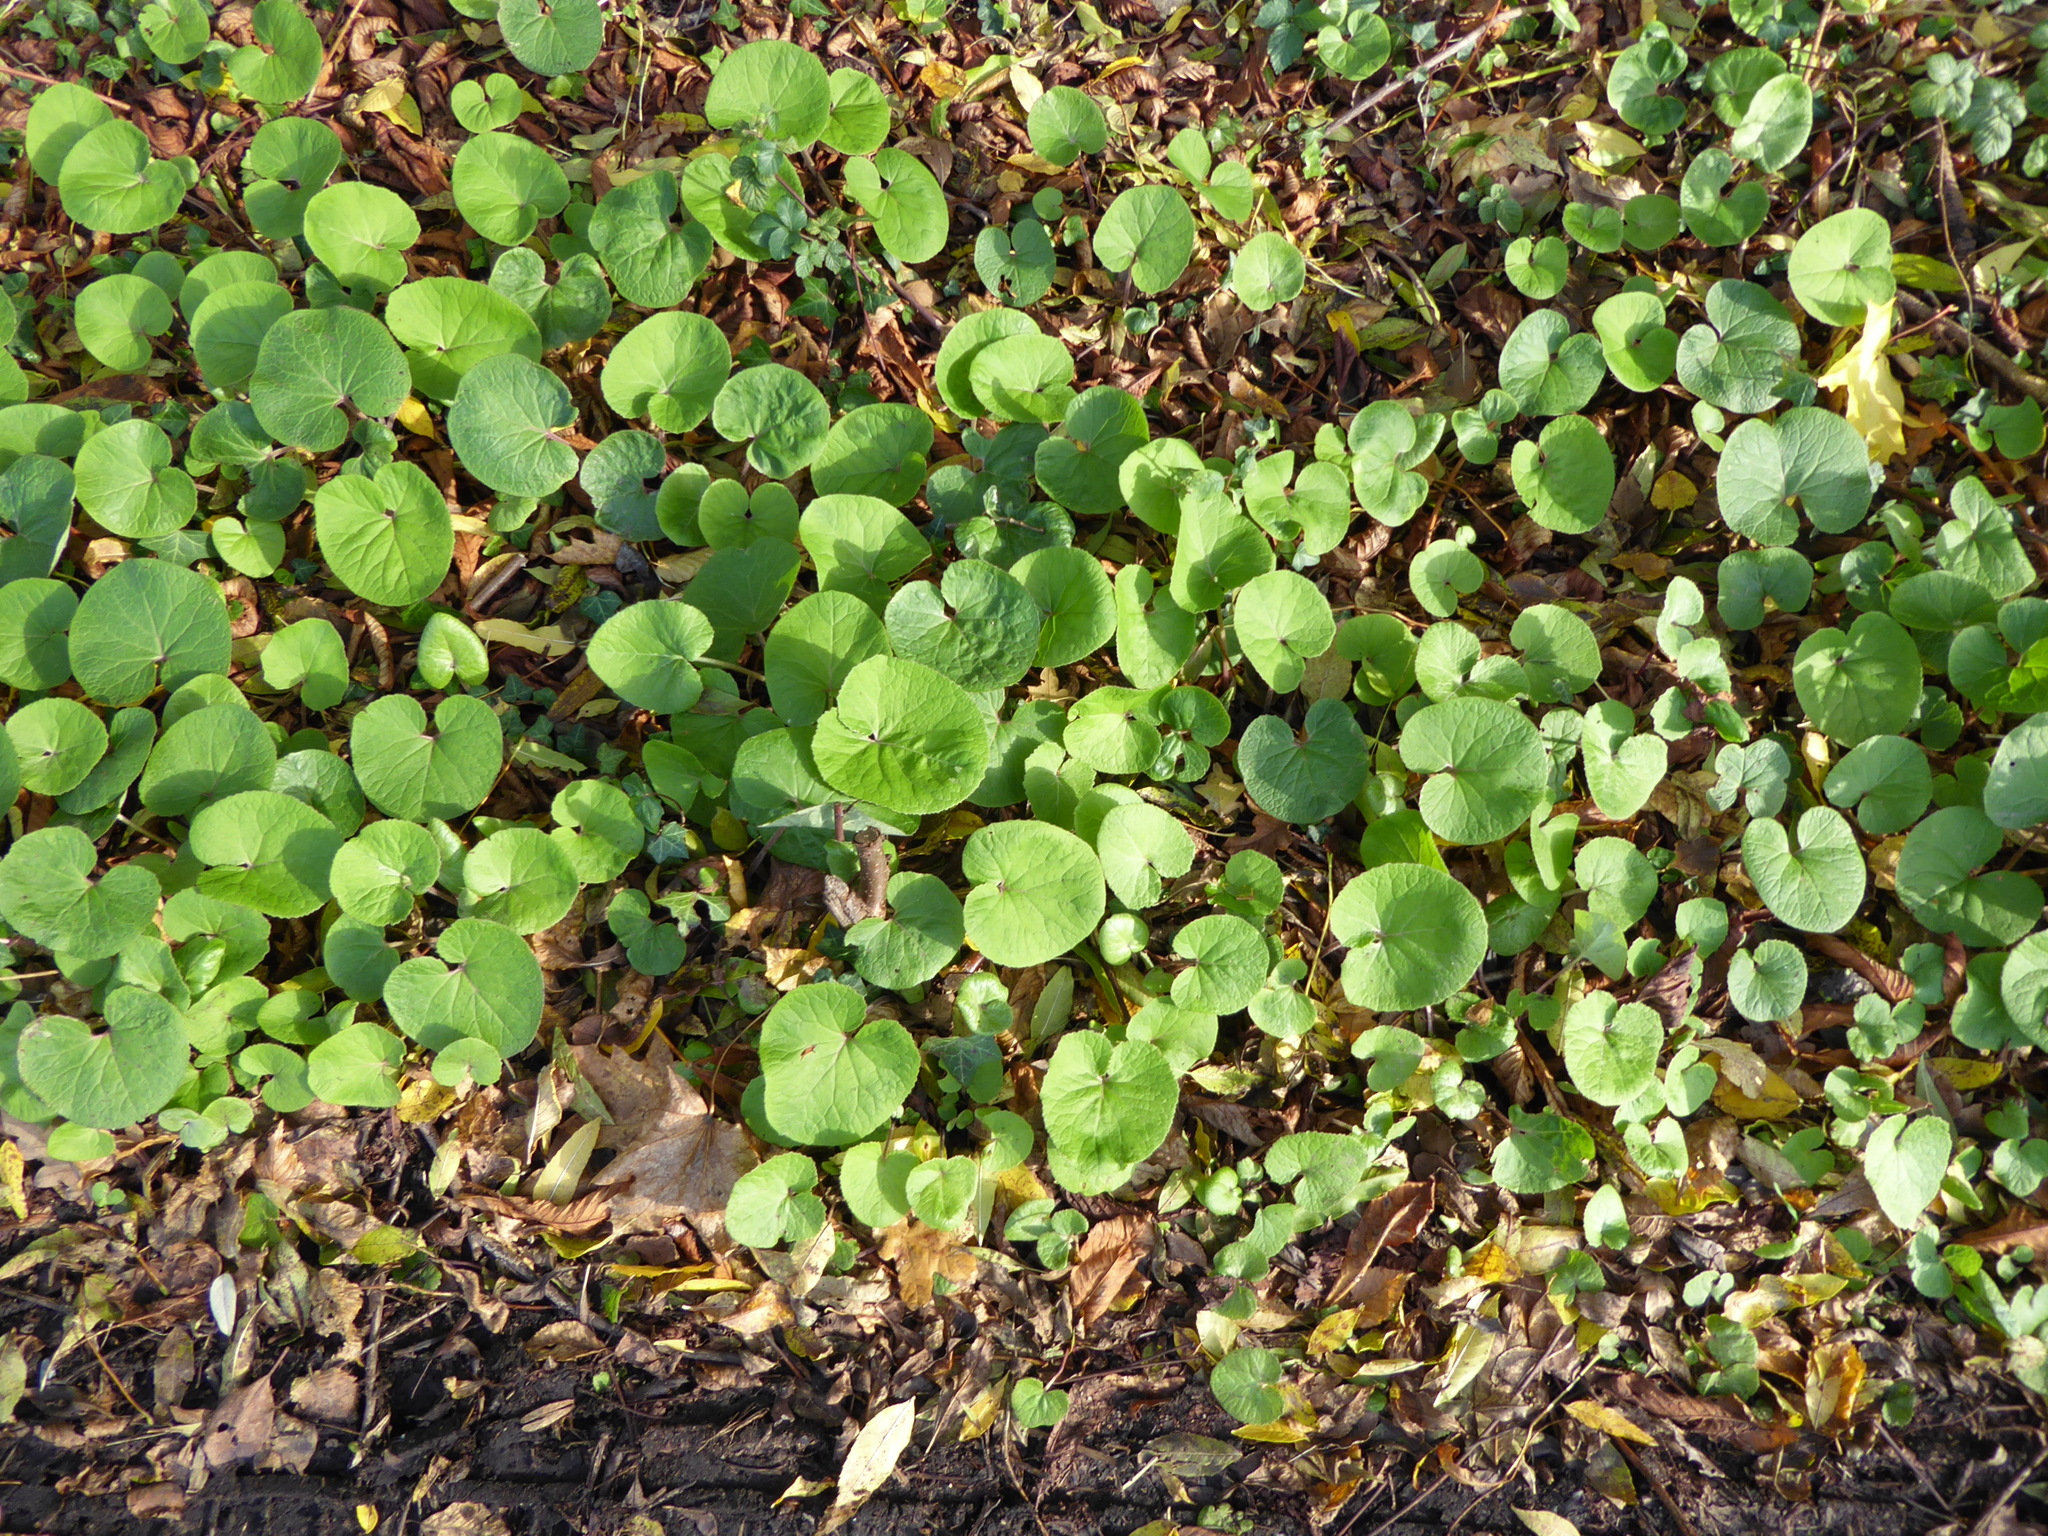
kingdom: Plantae
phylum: Tracheophyta
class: Magnoliopsida
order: Asterales
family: Asteraceae
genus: Petasites
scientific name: Petasites pyrenaicus
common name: Winter heliotrope
